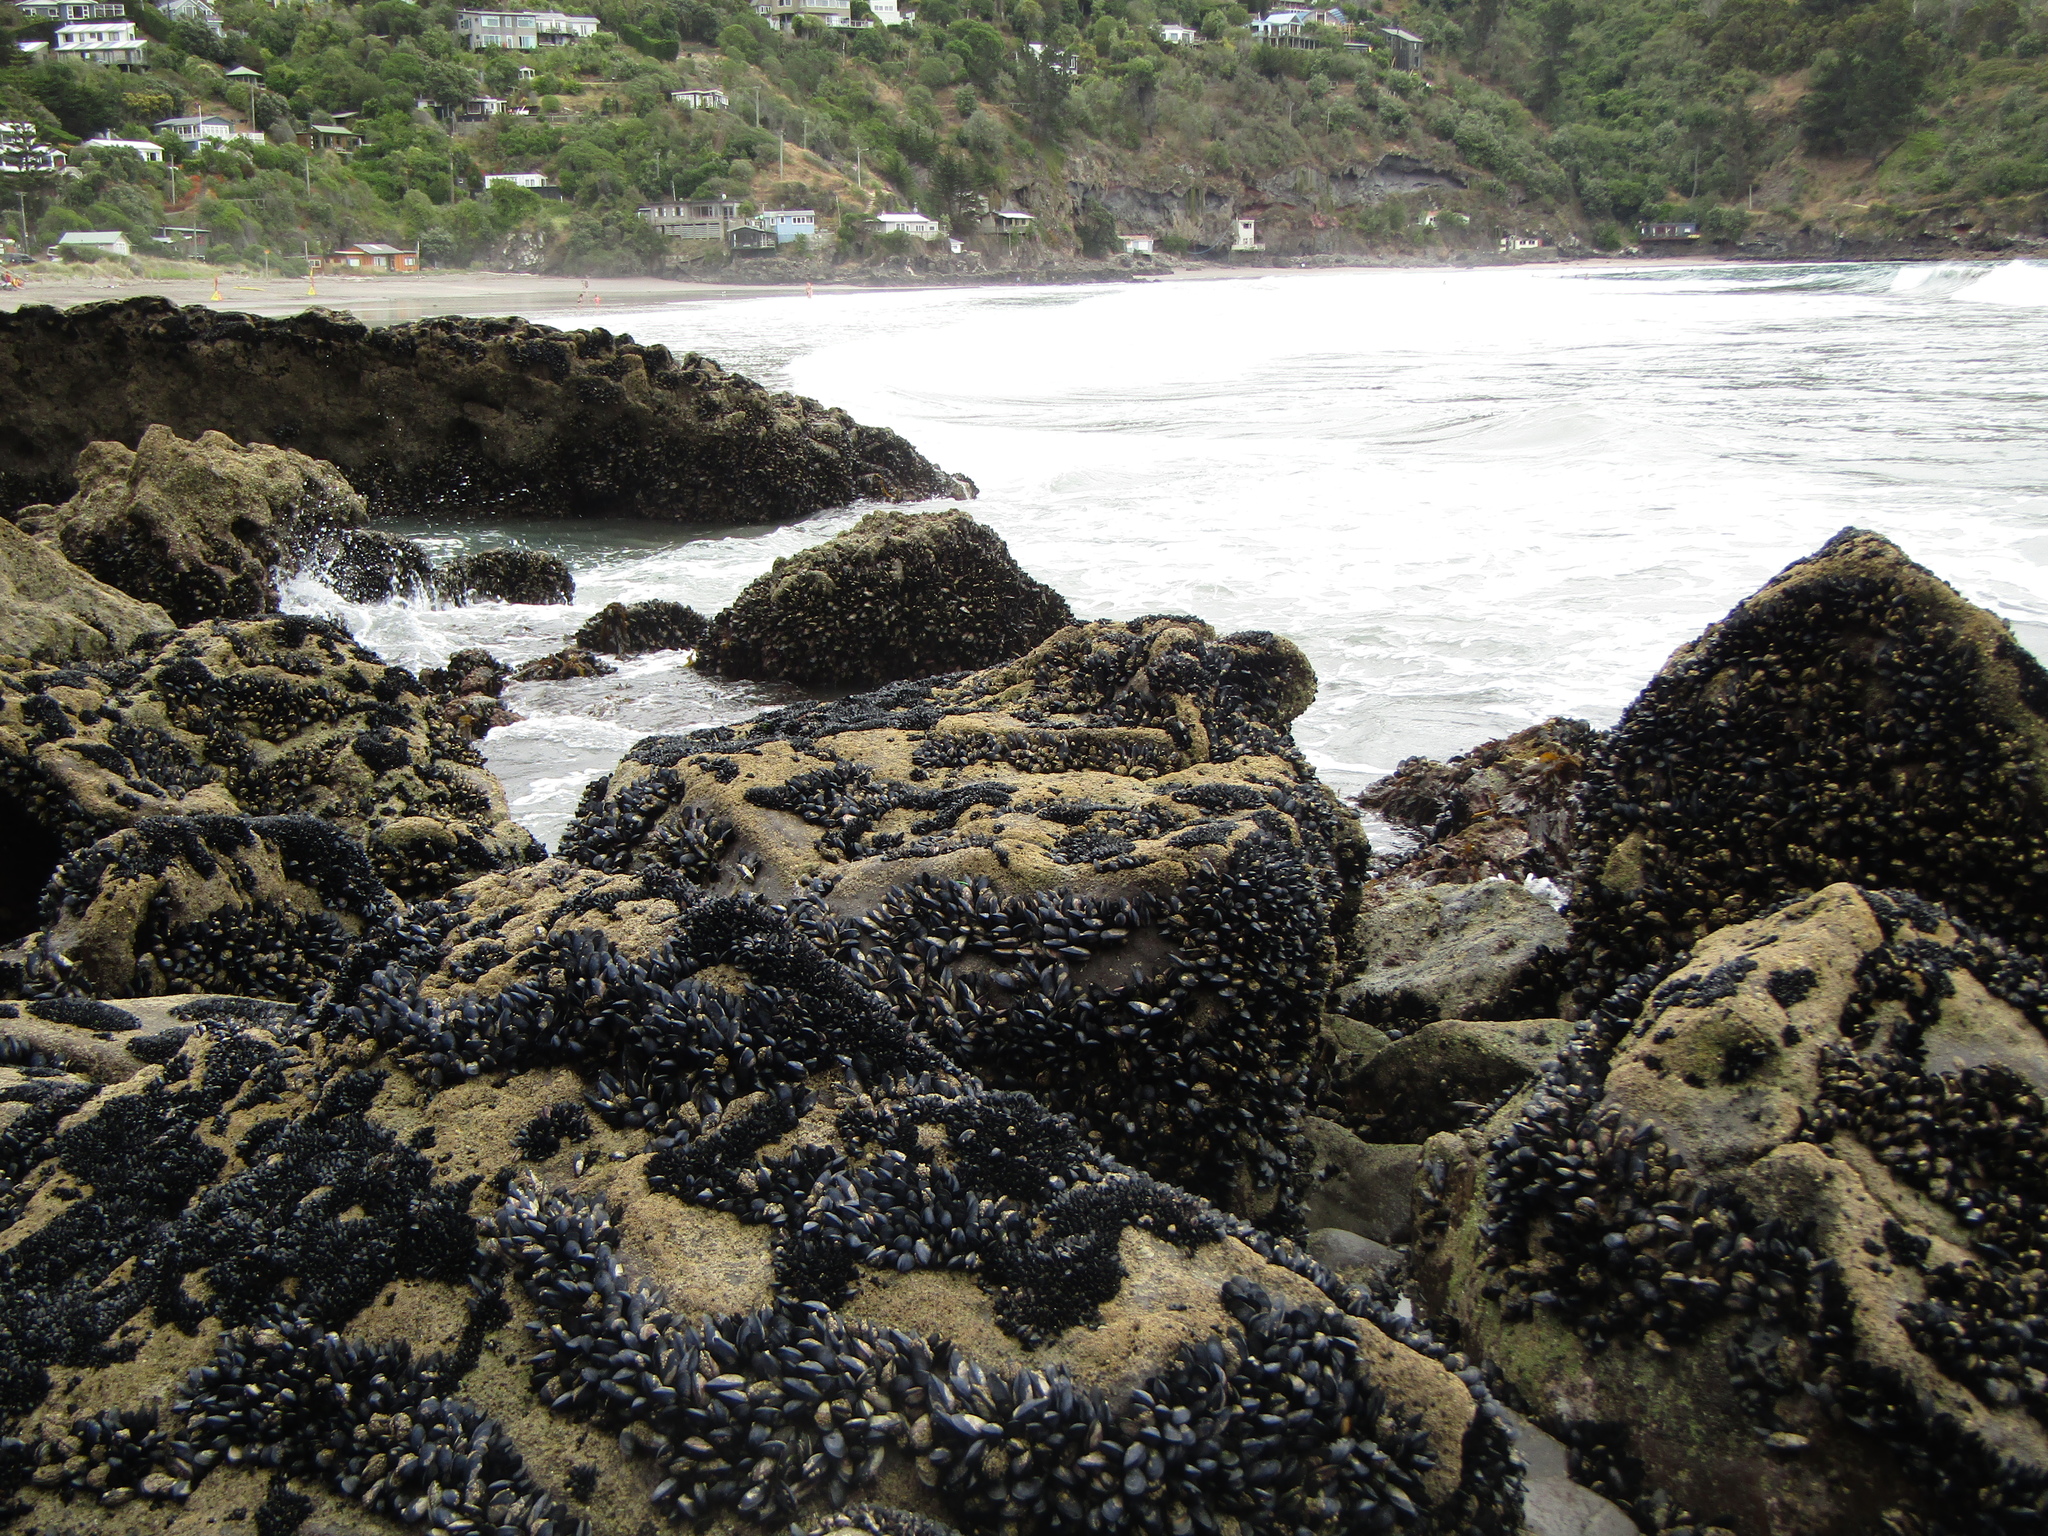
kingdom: Animalia
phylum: Mollusca
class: Bivalvia
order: Mytilida
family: Mytilidae
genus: Mytilus
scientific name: Mytilus planulatus
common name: Australian mussel
